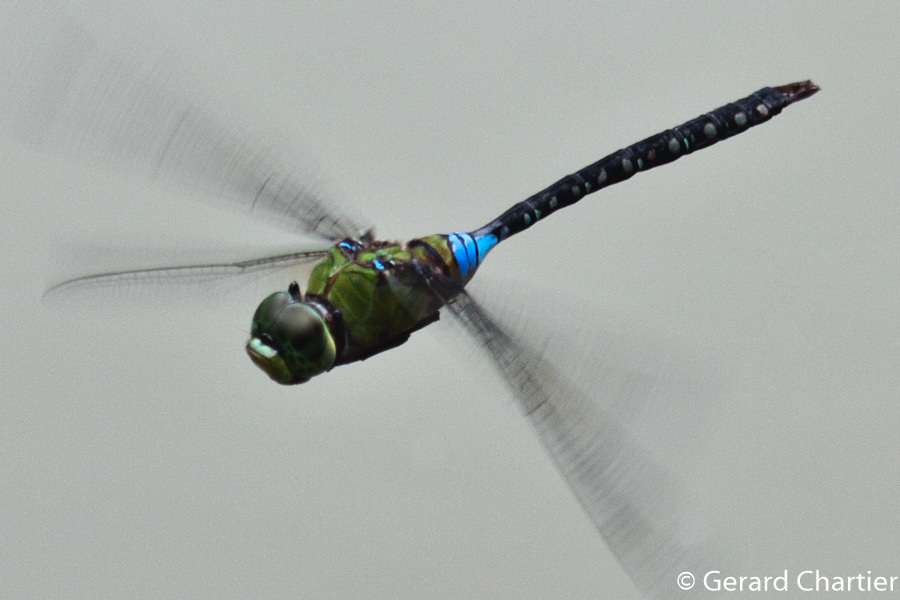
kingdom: Animalia
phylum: Arthropoda
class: Insecta
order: Odonata
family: Aeshnidae
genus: Anax
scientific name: Anax guttatus
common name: Emperor
